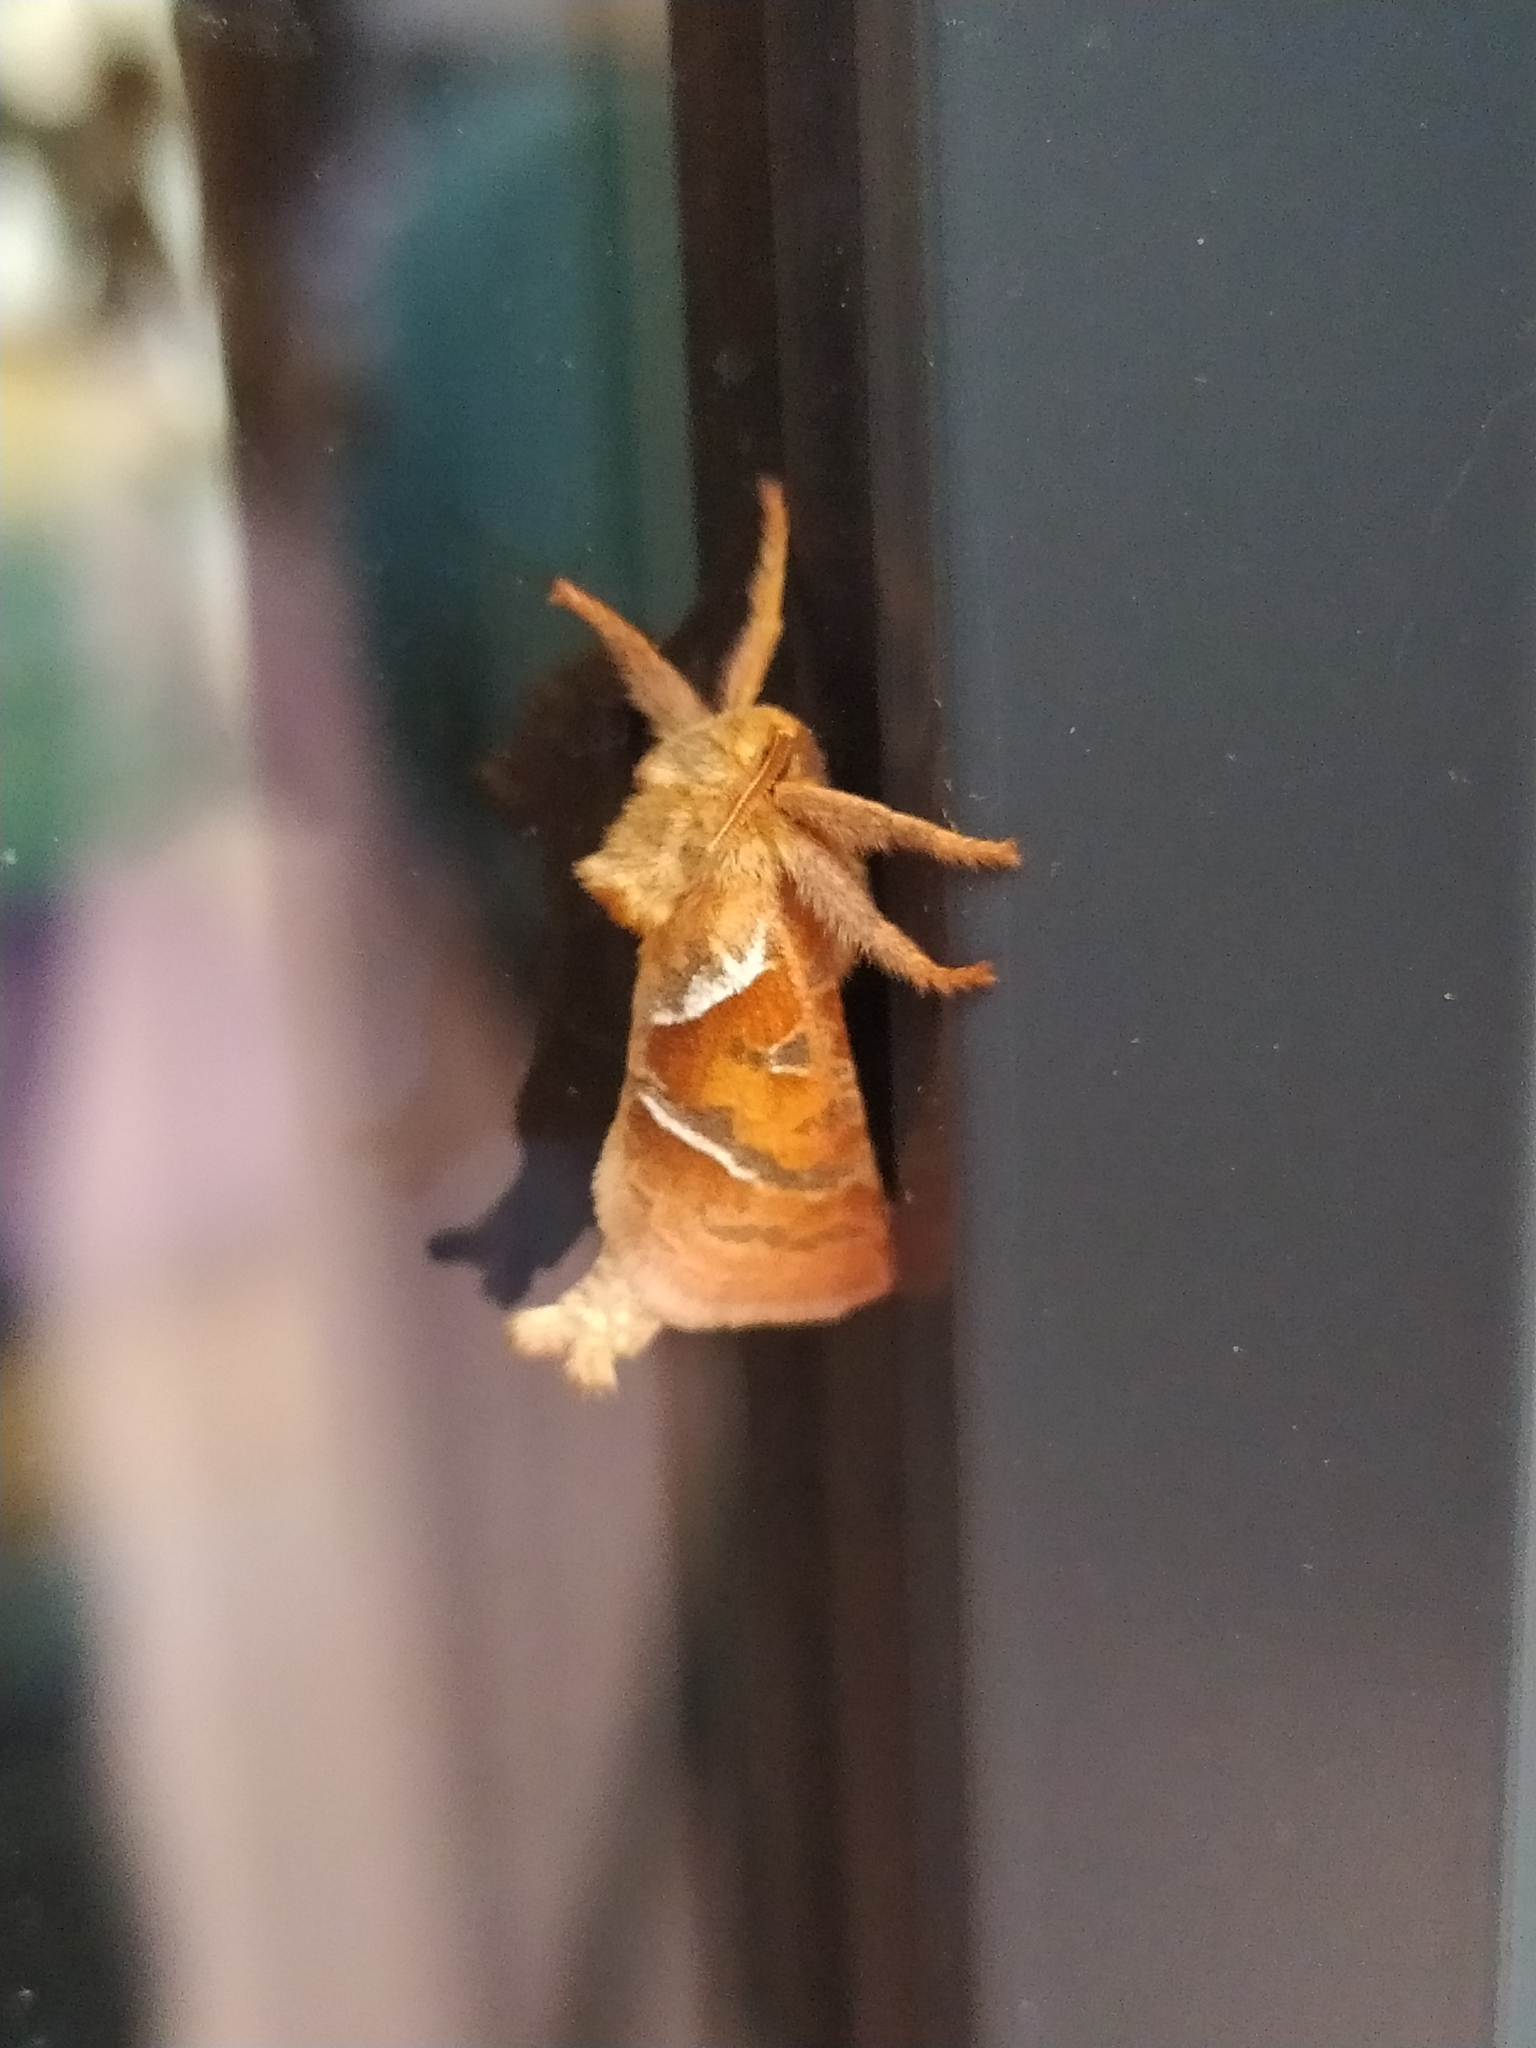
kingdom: Animalia
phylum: Arthropoda
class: Insecta
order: Lepidoptera
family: Hepialidae
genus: Triodia
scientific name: Triodia sylvina
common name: Orange swift
